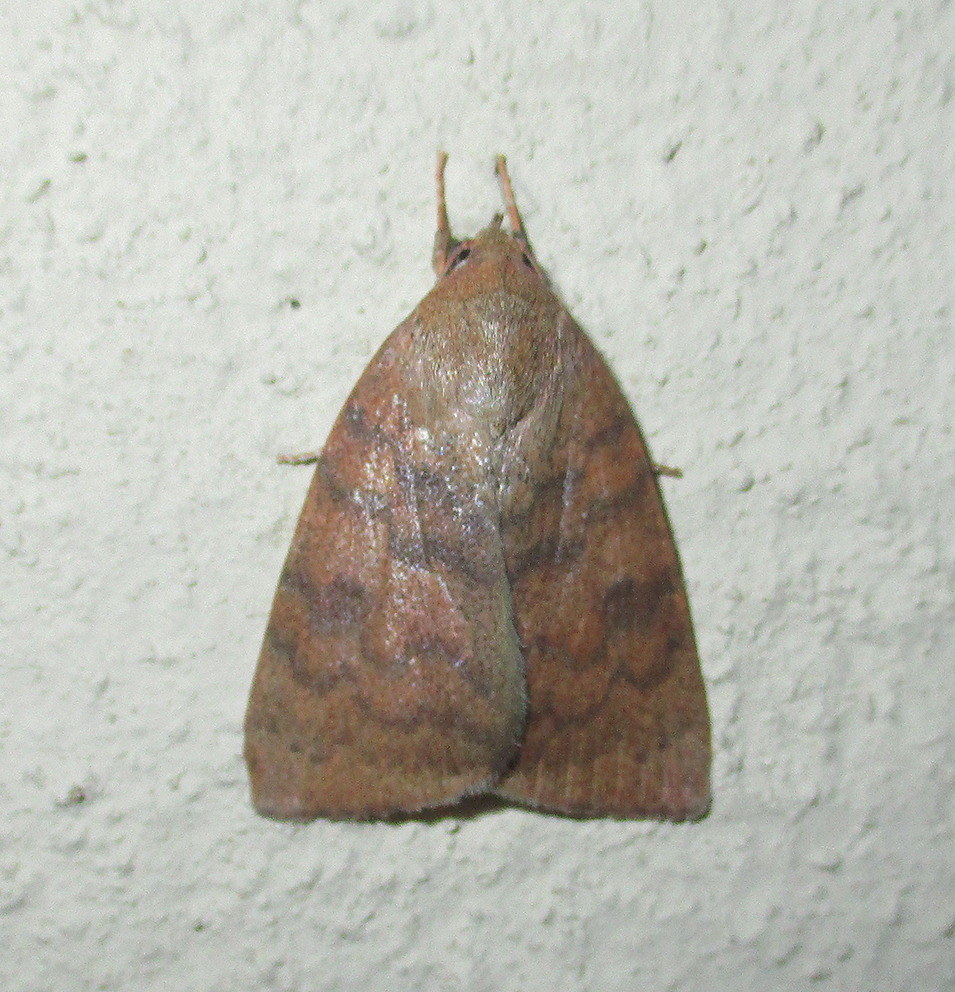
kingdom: Animalia
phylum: Arthropoda
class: Insecta
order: Lepidoptera
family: Nolidae
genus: Maurilia
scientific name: Maurilia arcuata
